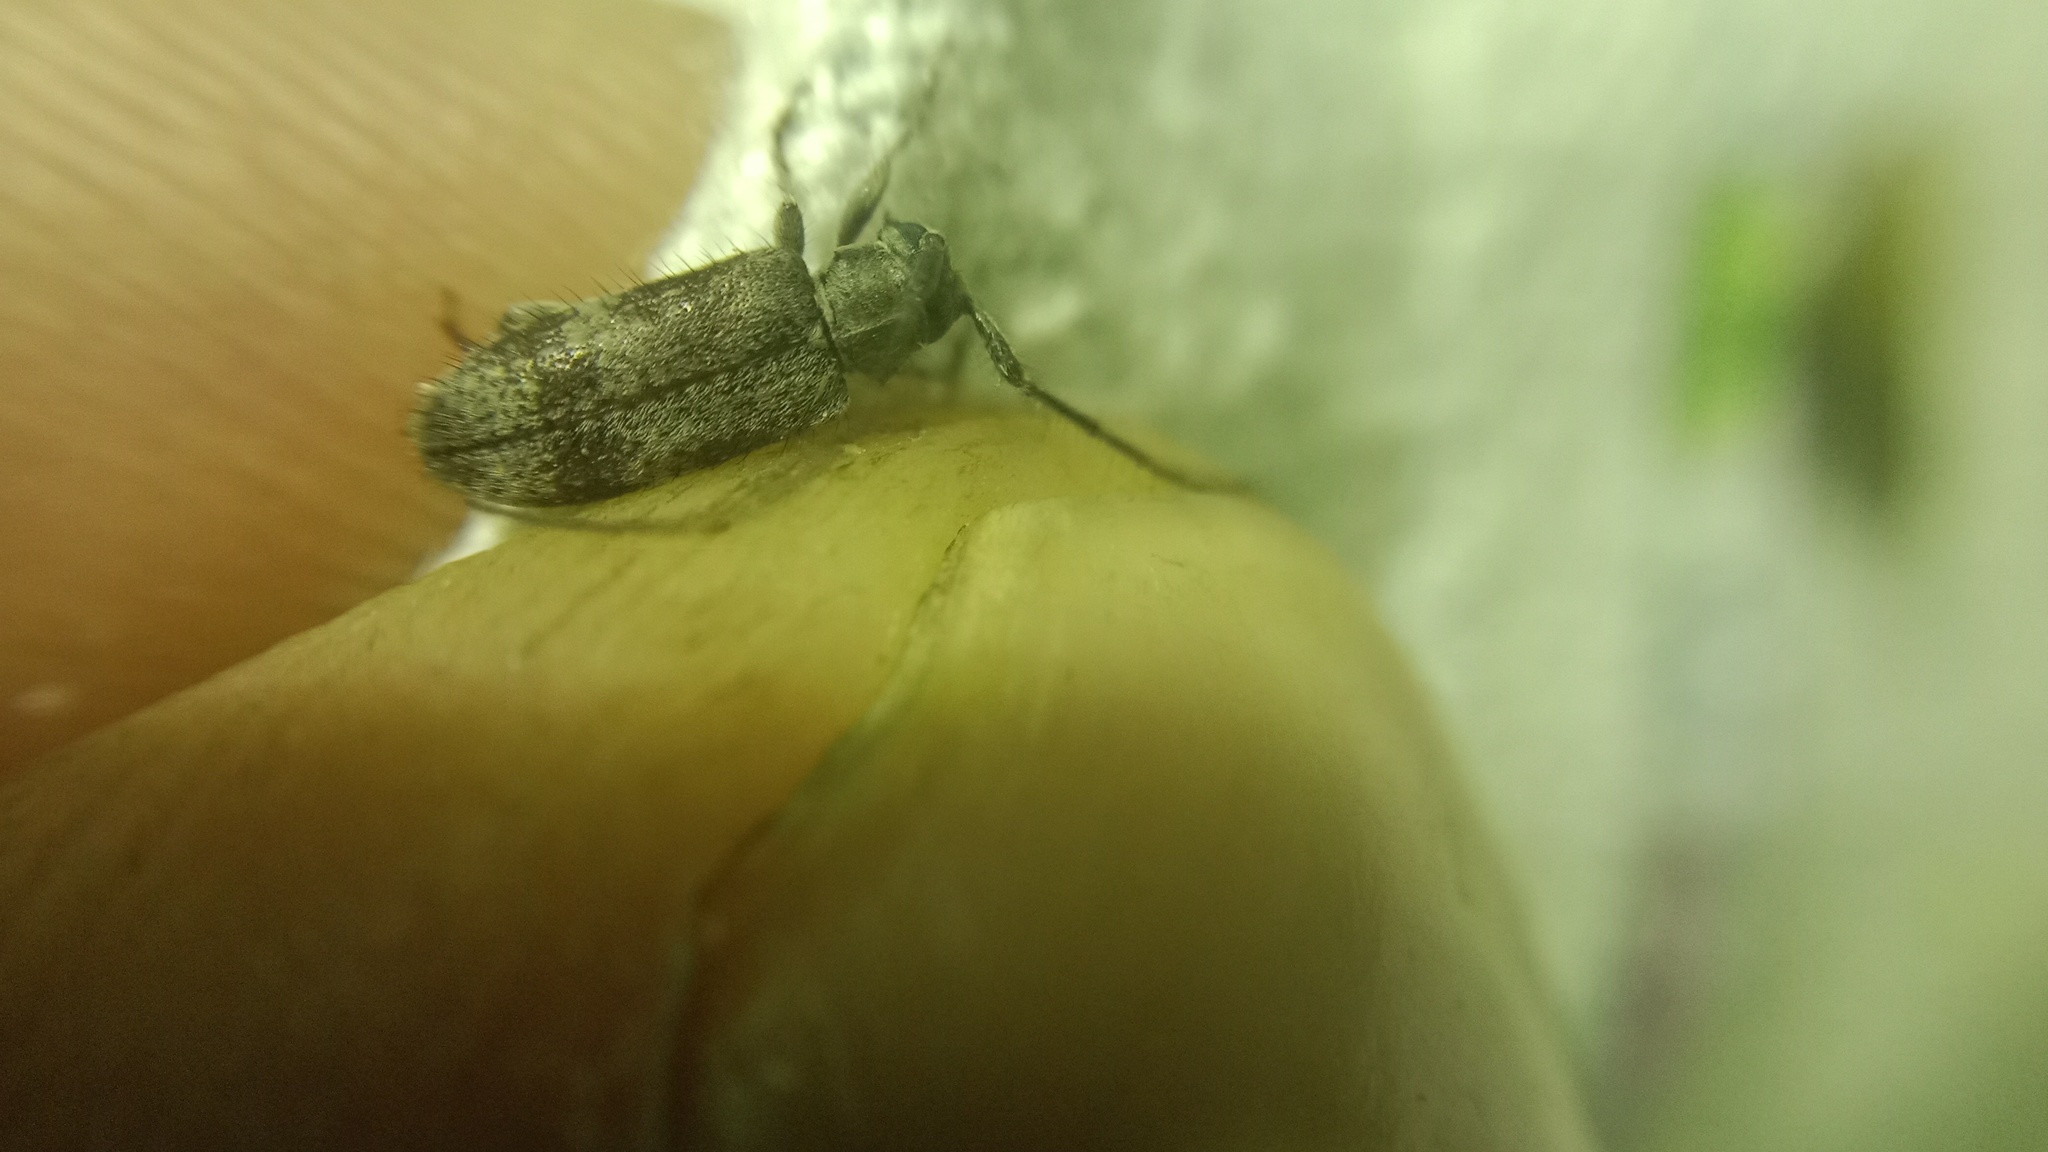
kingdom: Animalia
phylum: Arthropoda
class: Insecta
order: Coleoptera
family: Cerambycidae
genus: Exocentrus
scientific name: Exocentrus lusitanus
